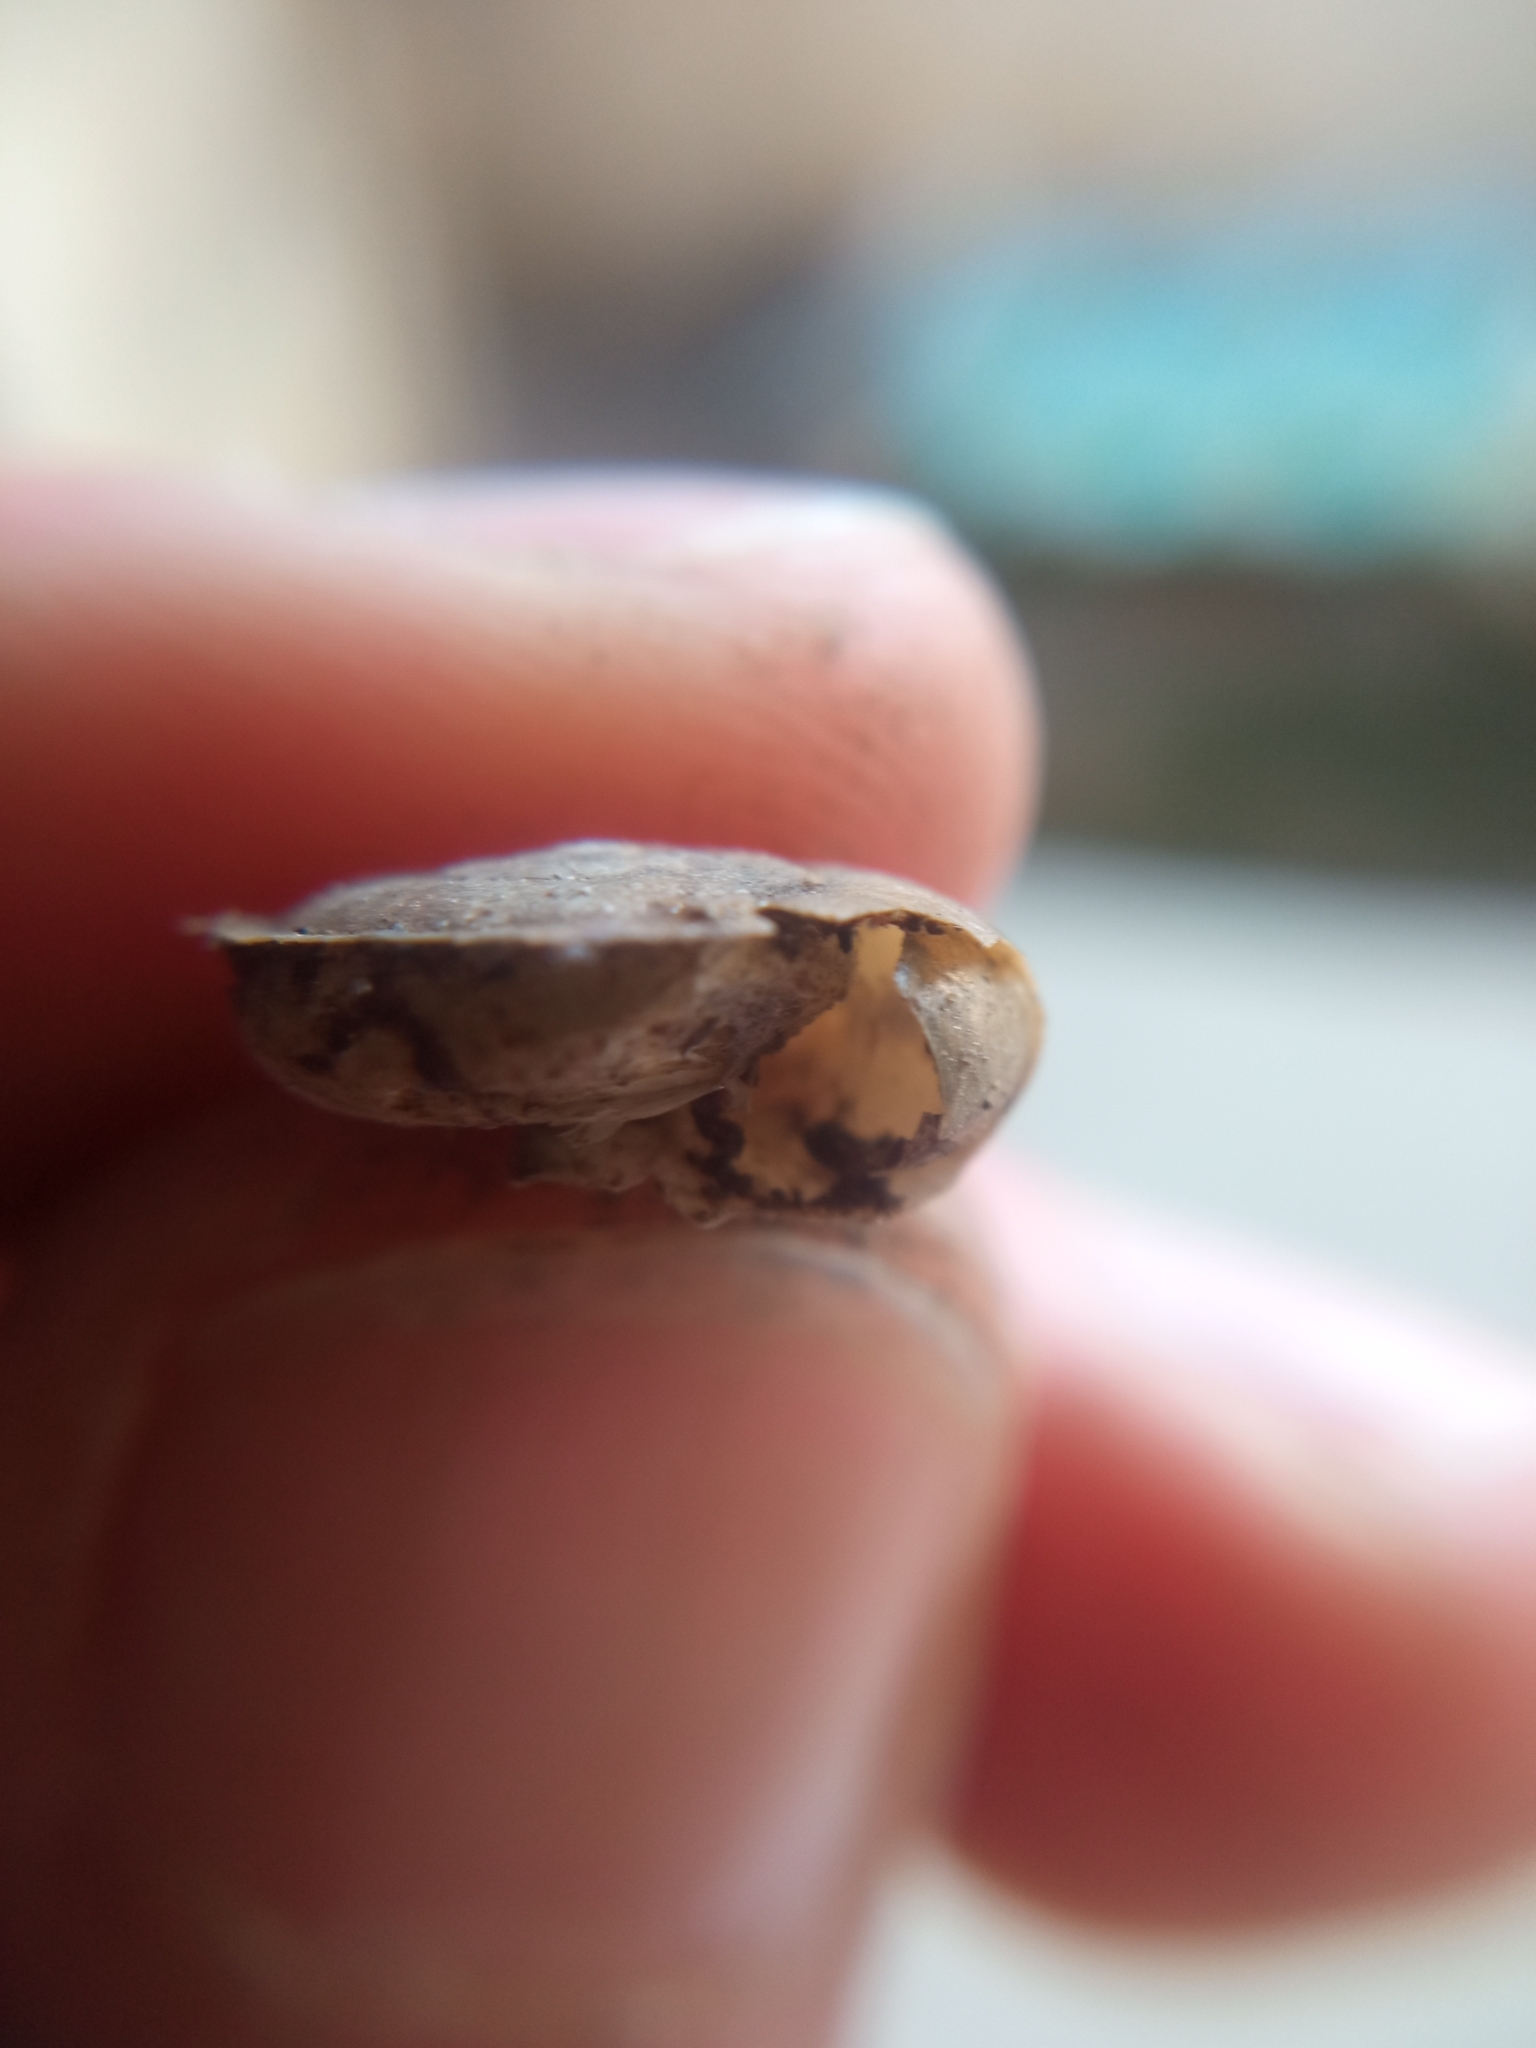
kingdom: Animalia
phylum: Mollusca
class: Gastropoda
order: Stylommatophora
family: Oxychilidae
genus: Oxychilus
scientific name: Oxychilus draparnaudi
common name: Draparnaud's glass snail
